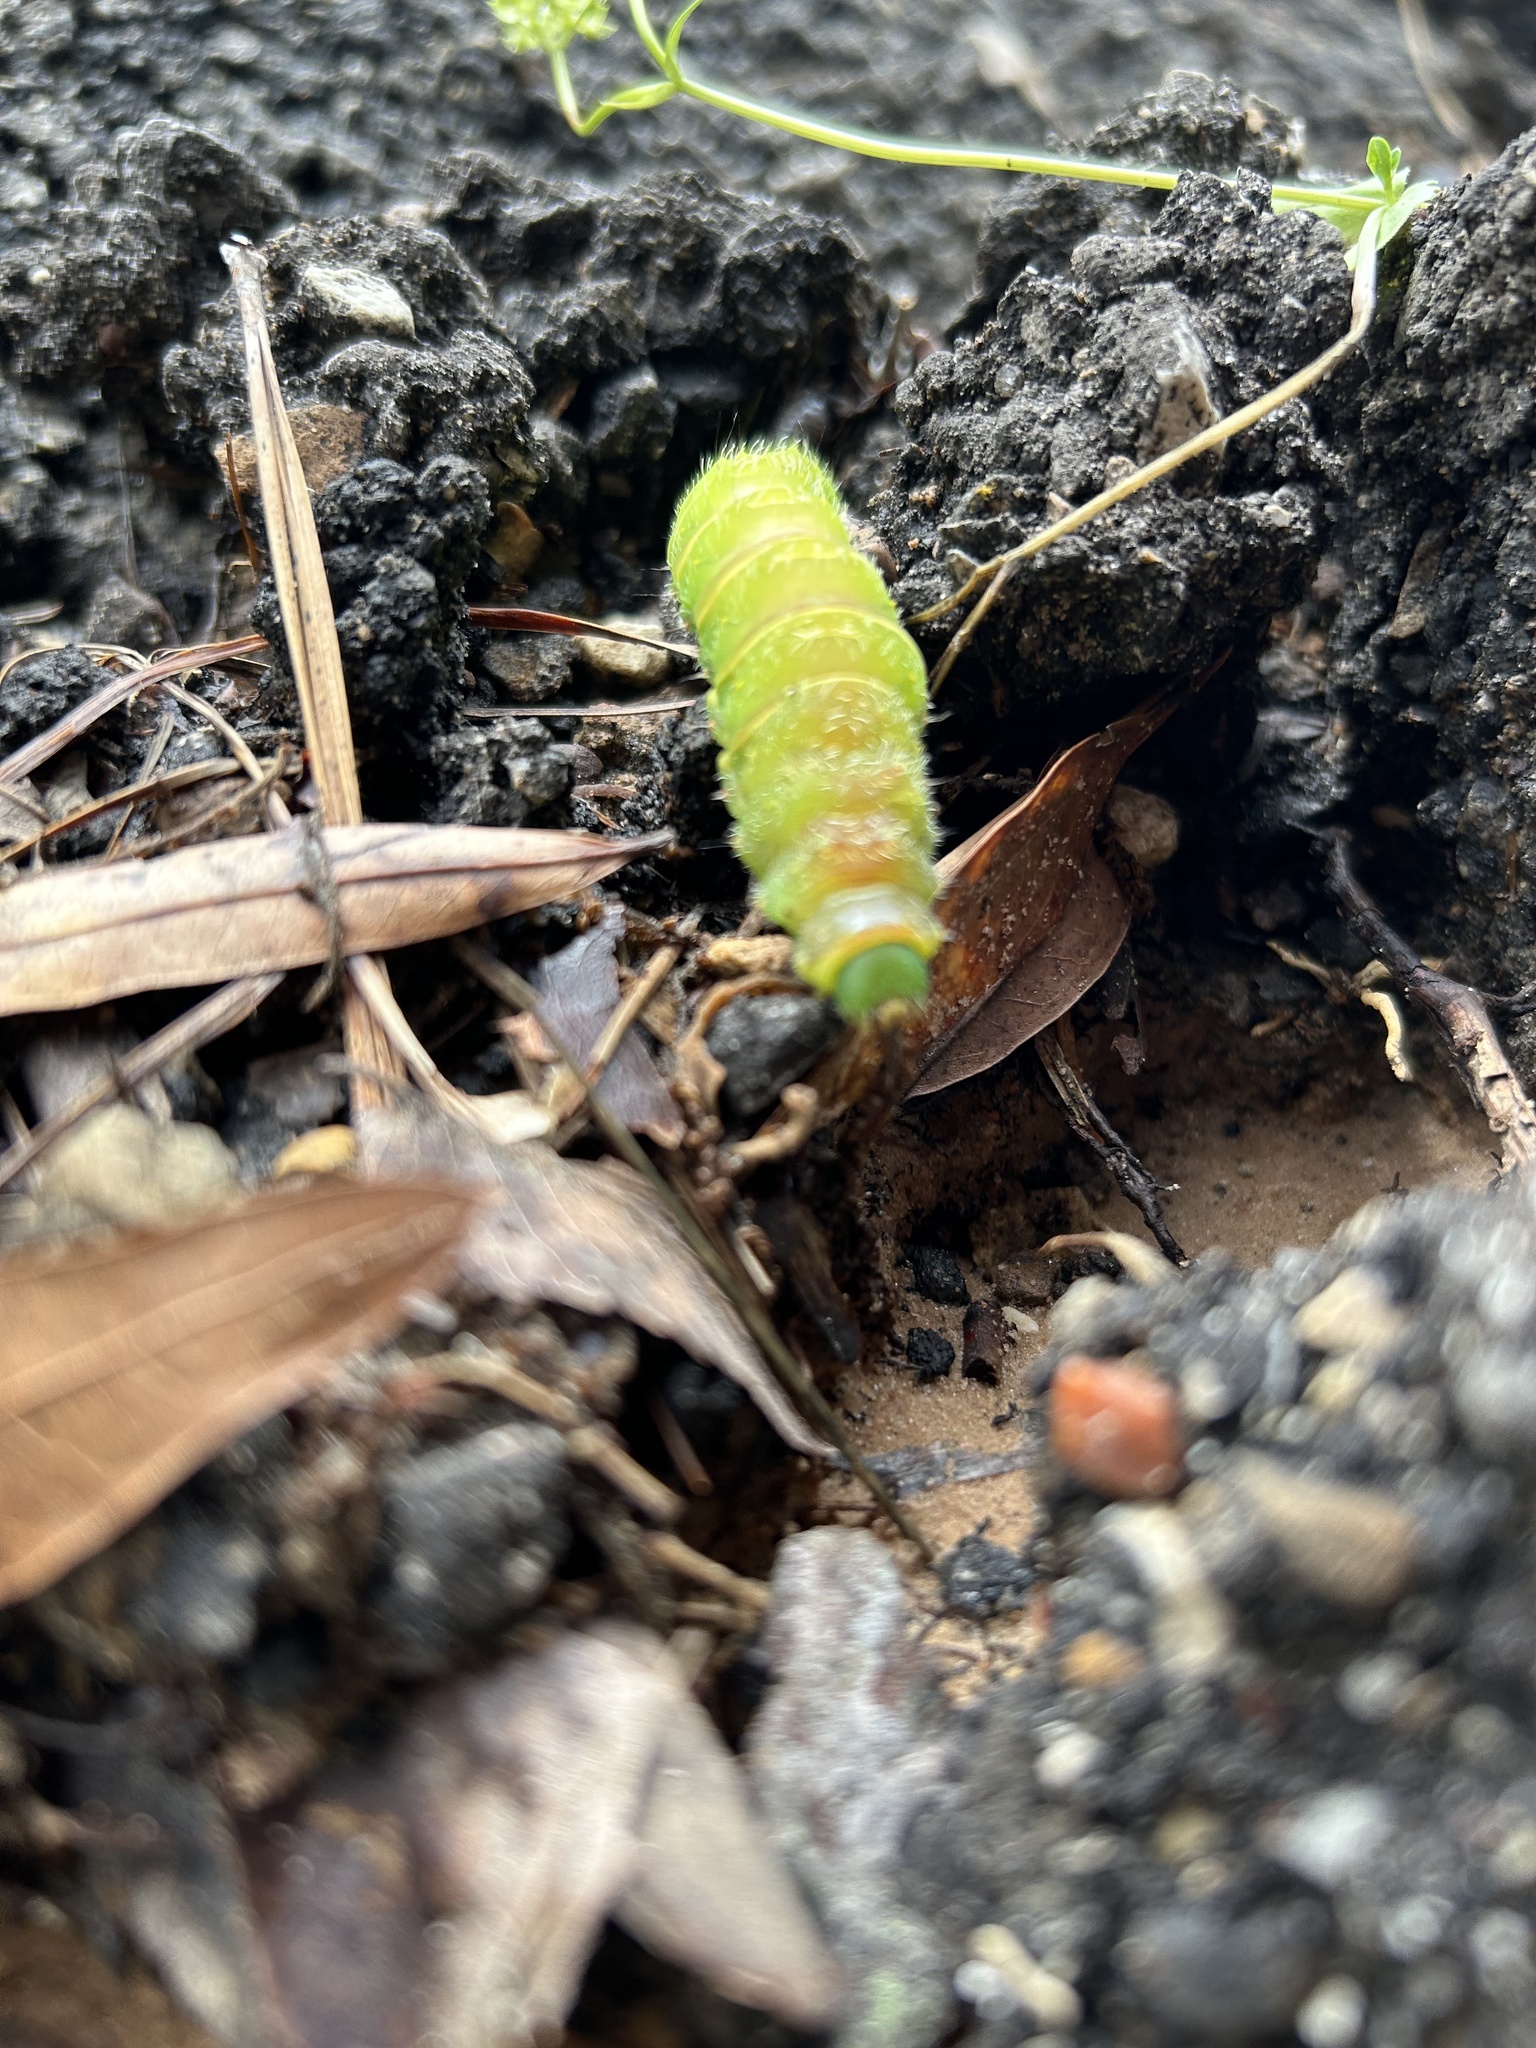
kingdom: Animalia
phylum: Arthropoda
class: Insecta
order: Lepidoptera
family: Saturniidae
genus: Actias
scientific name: Actias luna
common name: Luna moth
